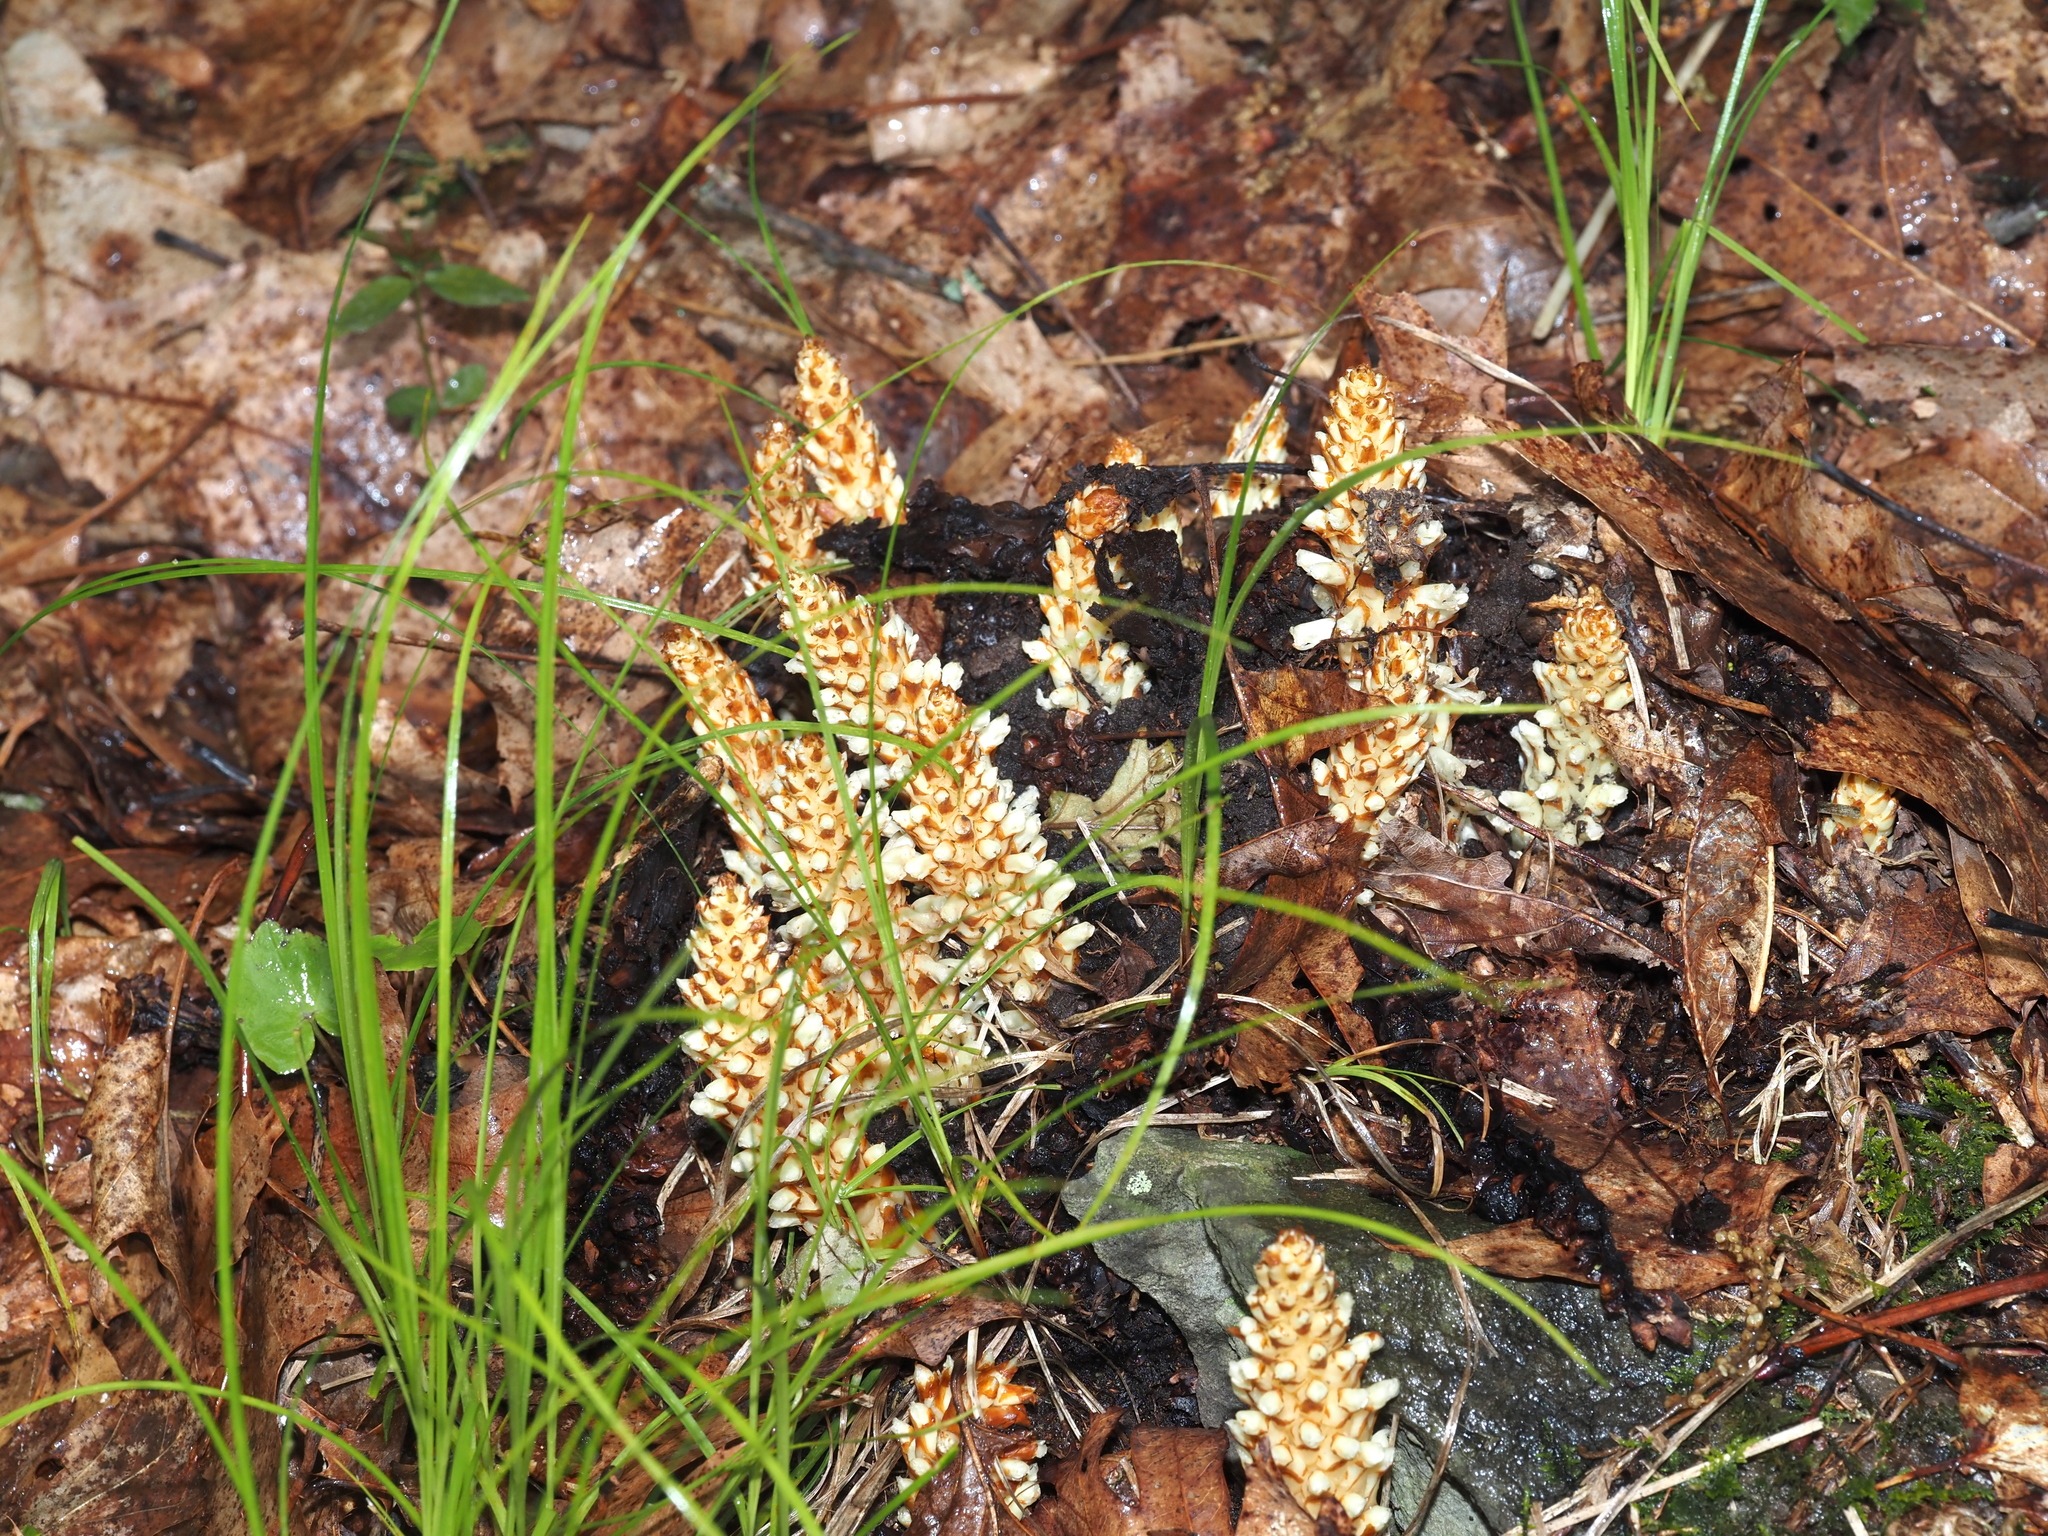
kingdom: Plantae
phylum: Tracheophyta
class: Magnoliopsida
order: Lamiales
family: Orobanchaceae
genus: Conopholis
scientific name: Conopholis americana
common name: American cancer-root
